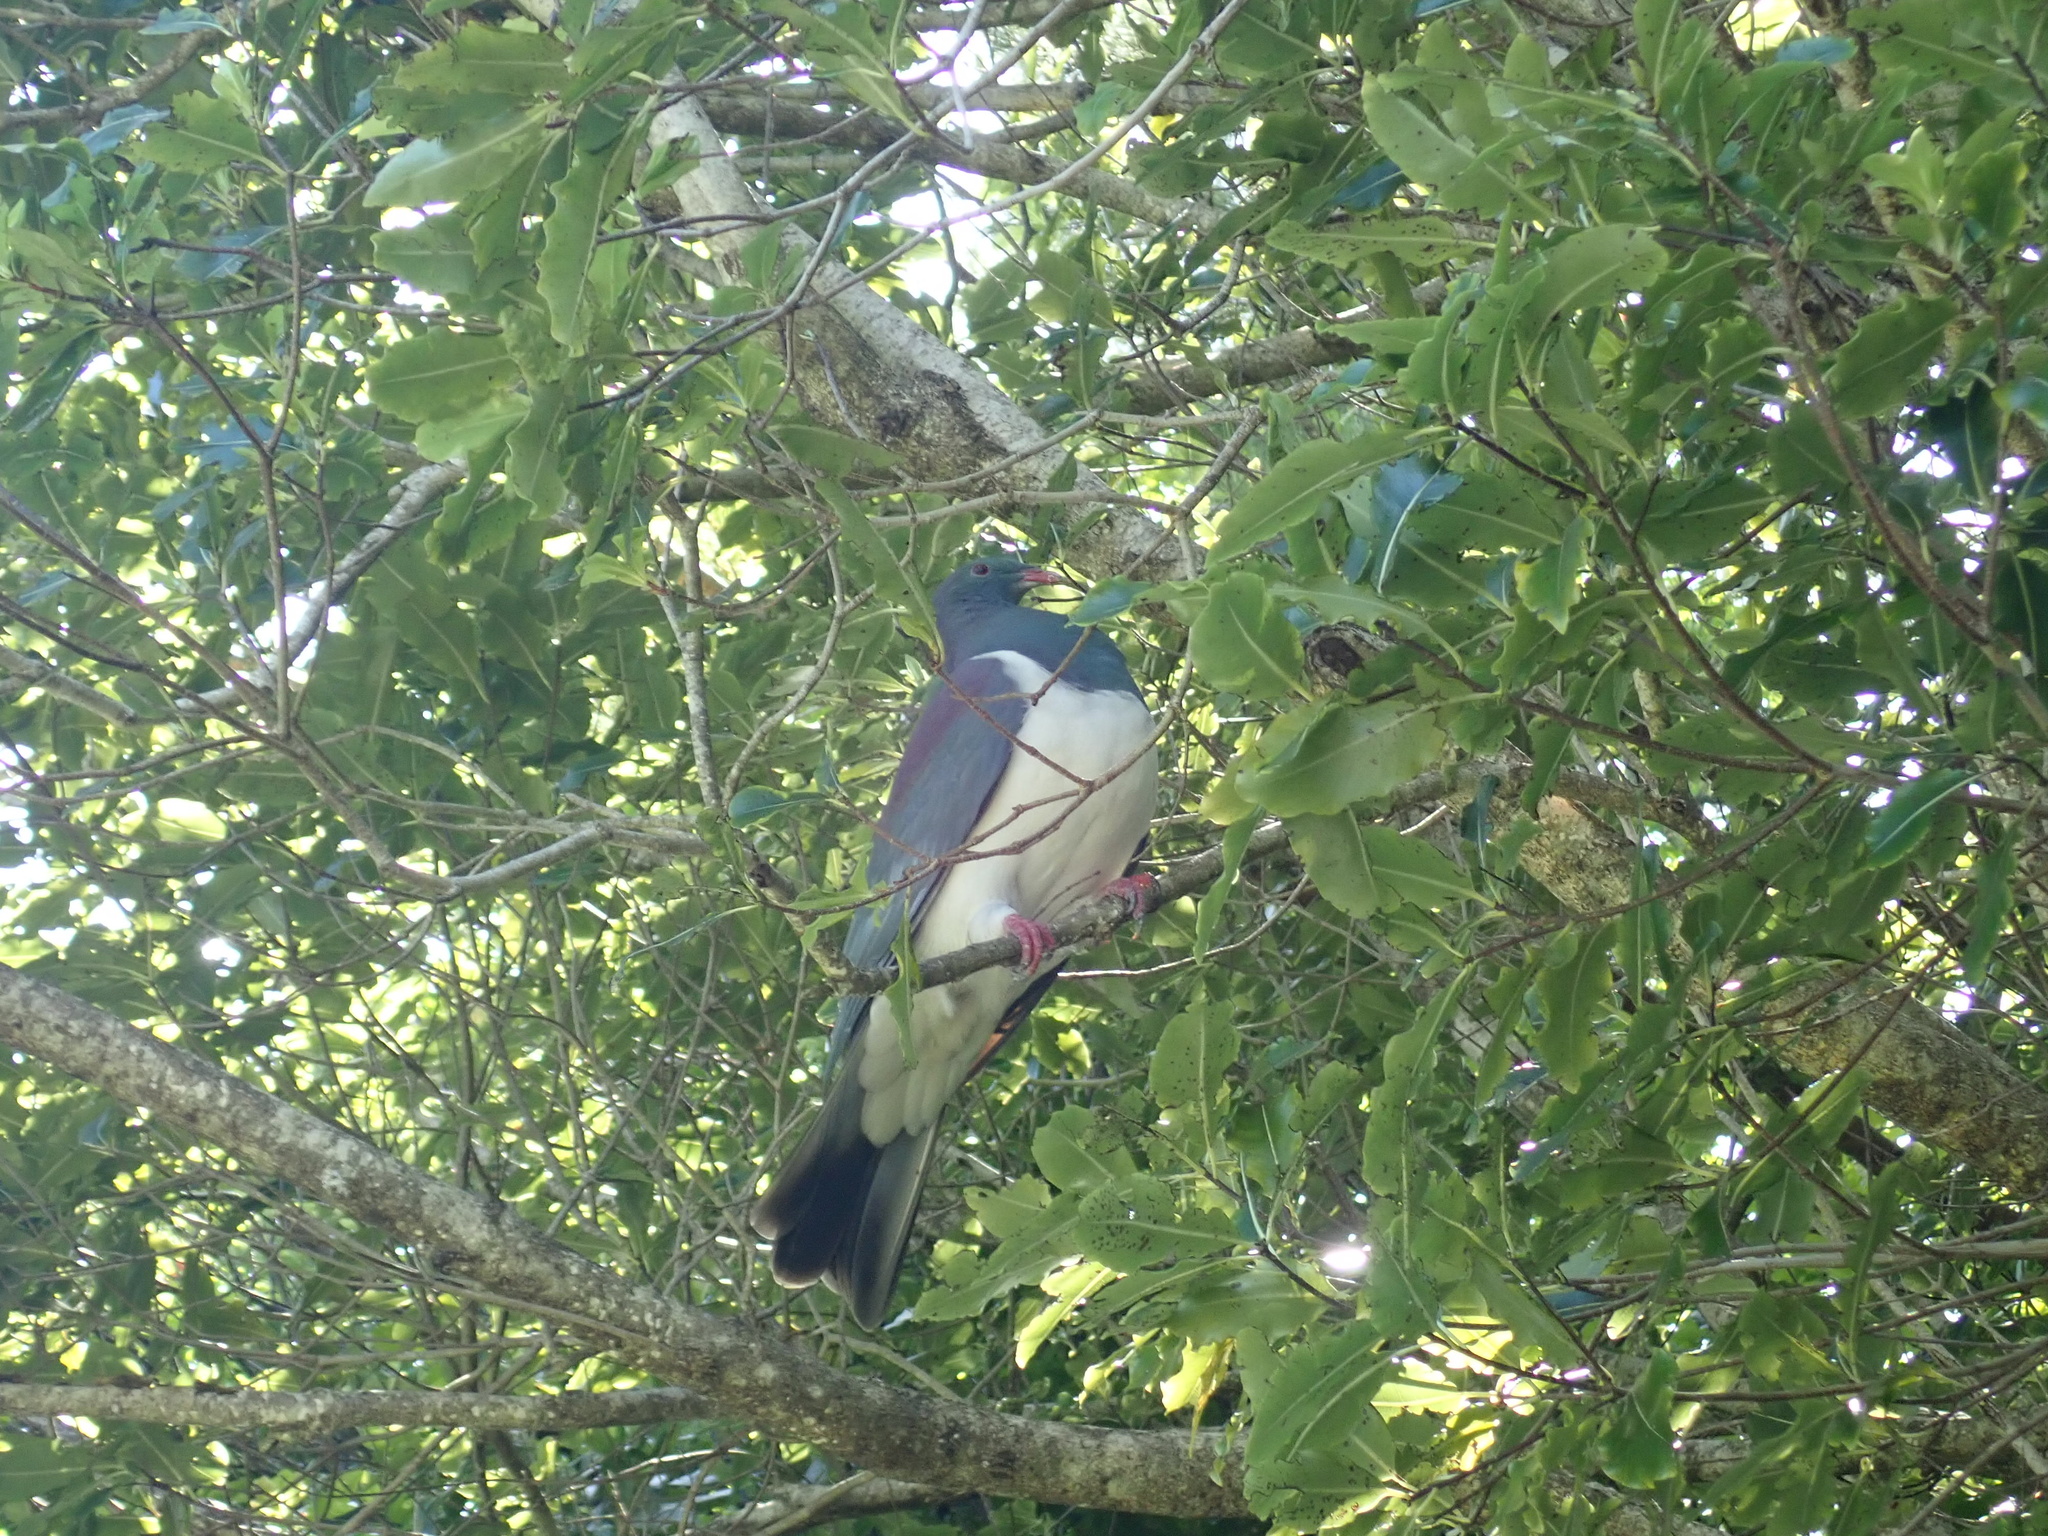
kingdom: Animalia
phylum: Chordata
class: Aves
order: Columbiformes
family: Columbidae
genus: Hemiphaga
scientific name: Hemiphaga novaeseelandiae
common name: New zealand pigeon
